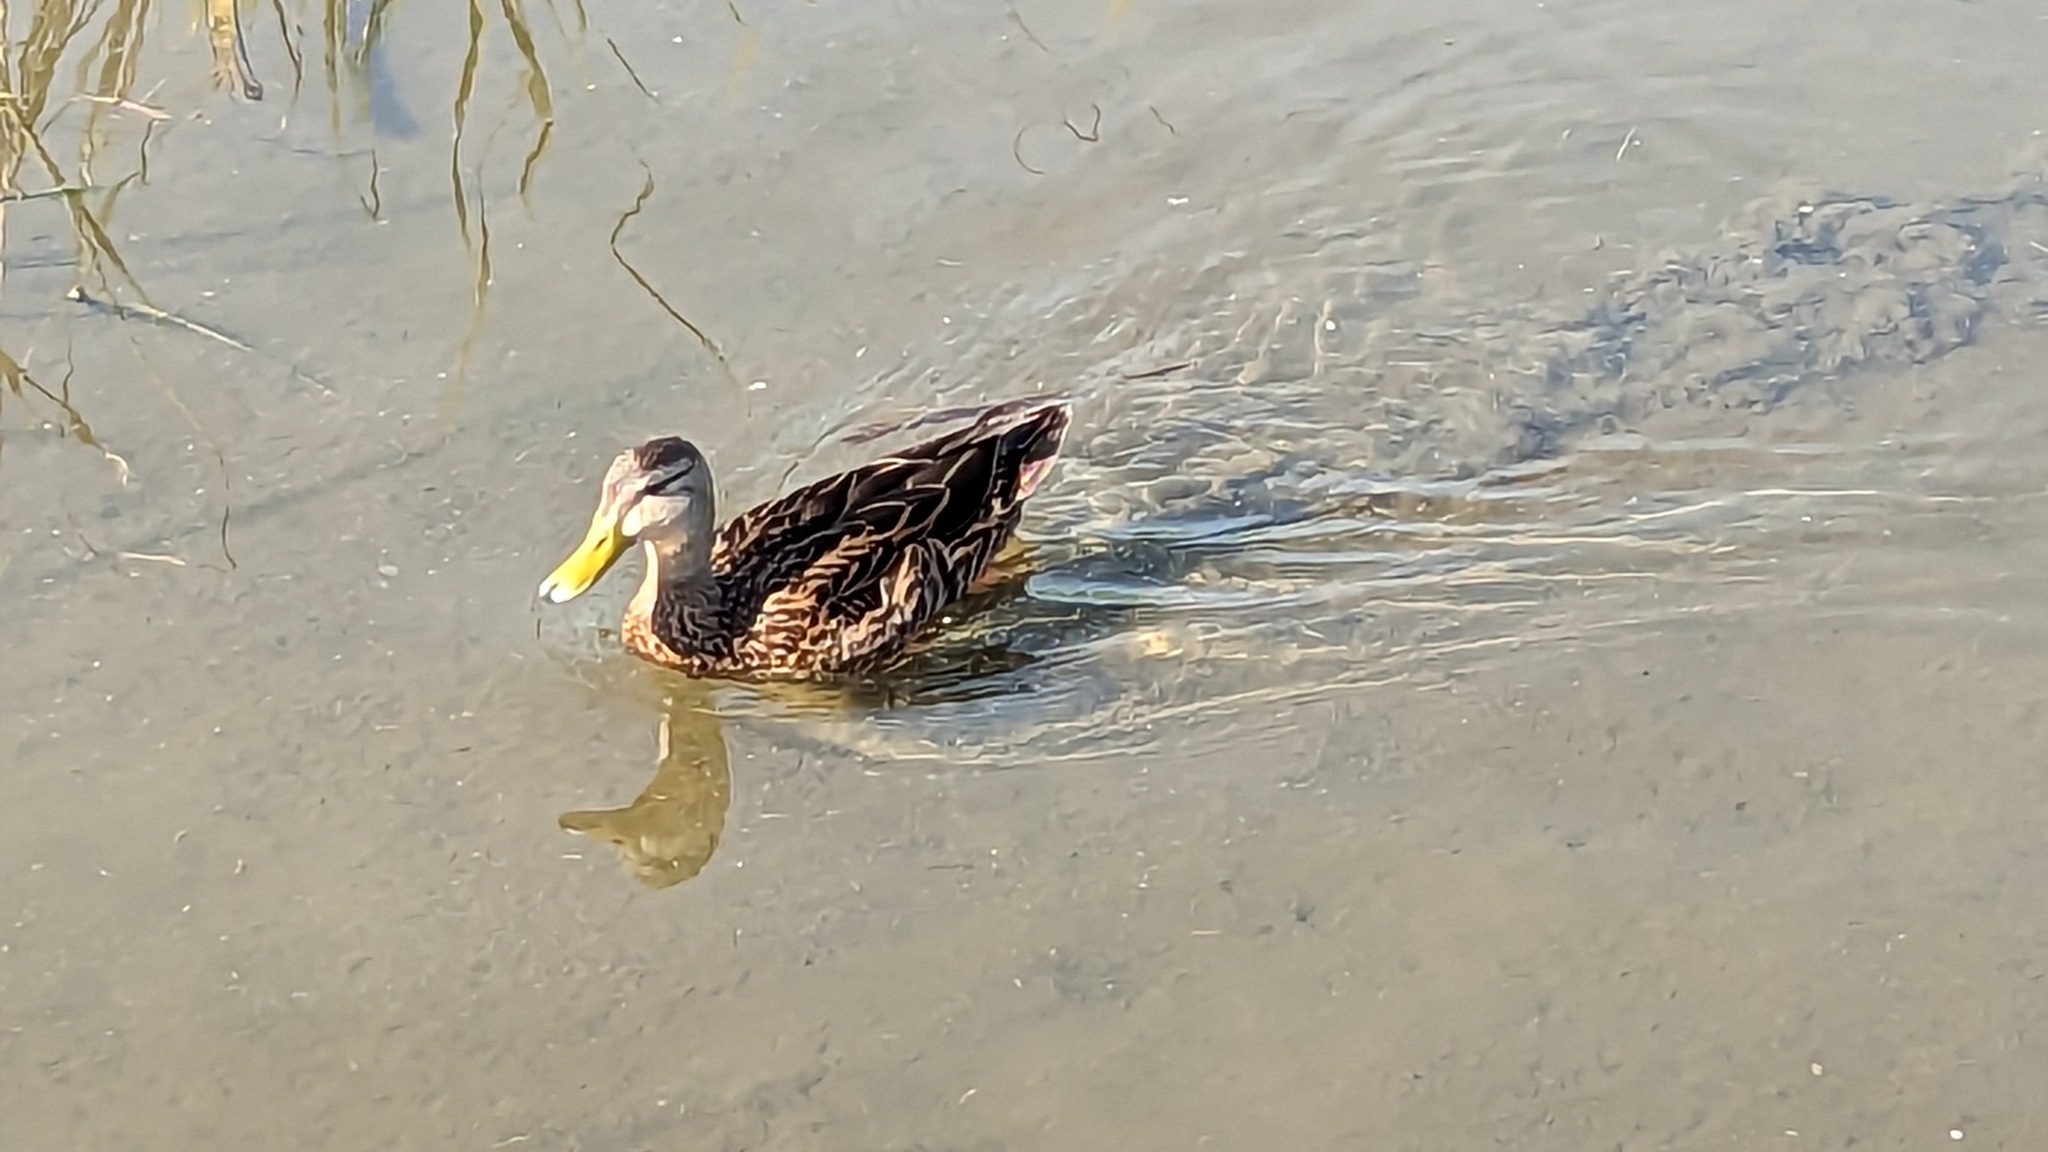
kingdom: Animalia
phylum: Chordata
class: Aves
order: Anseriformes
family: Anatidae
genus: Anas
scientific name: Anas fulvigula
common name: Mottled duck
